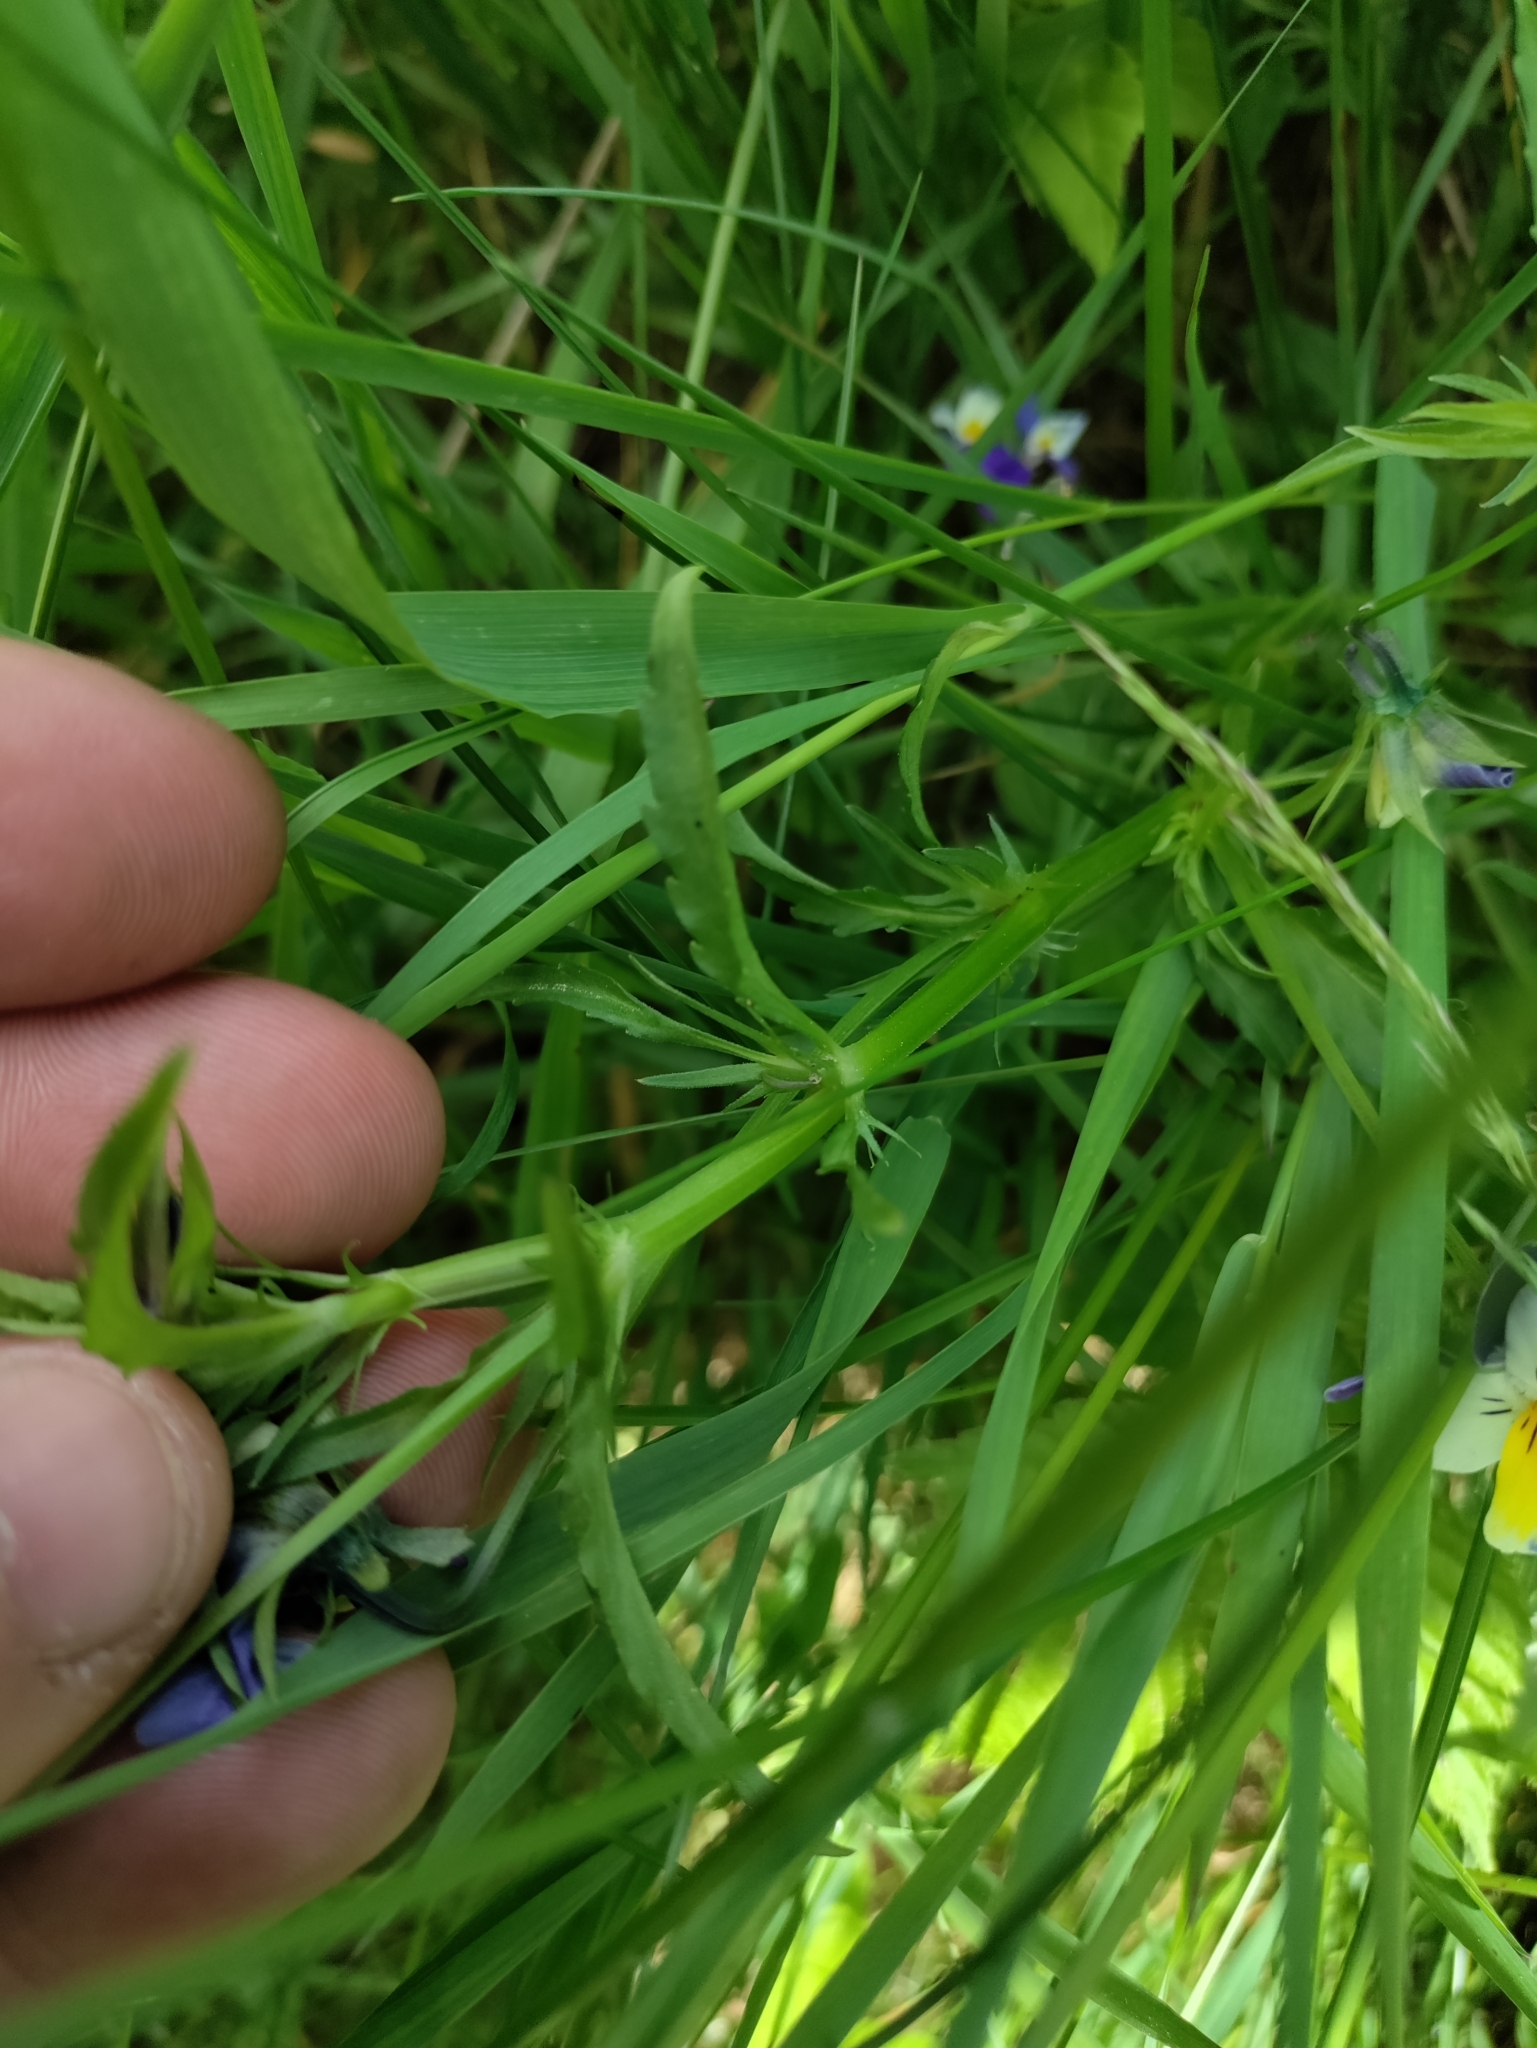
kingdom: Plantae
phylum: Tracheophyta
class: Magnoliopsida
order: Malpighiales
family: Violaceae
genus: Viola
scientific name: Viola tricolor
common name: Pansy
